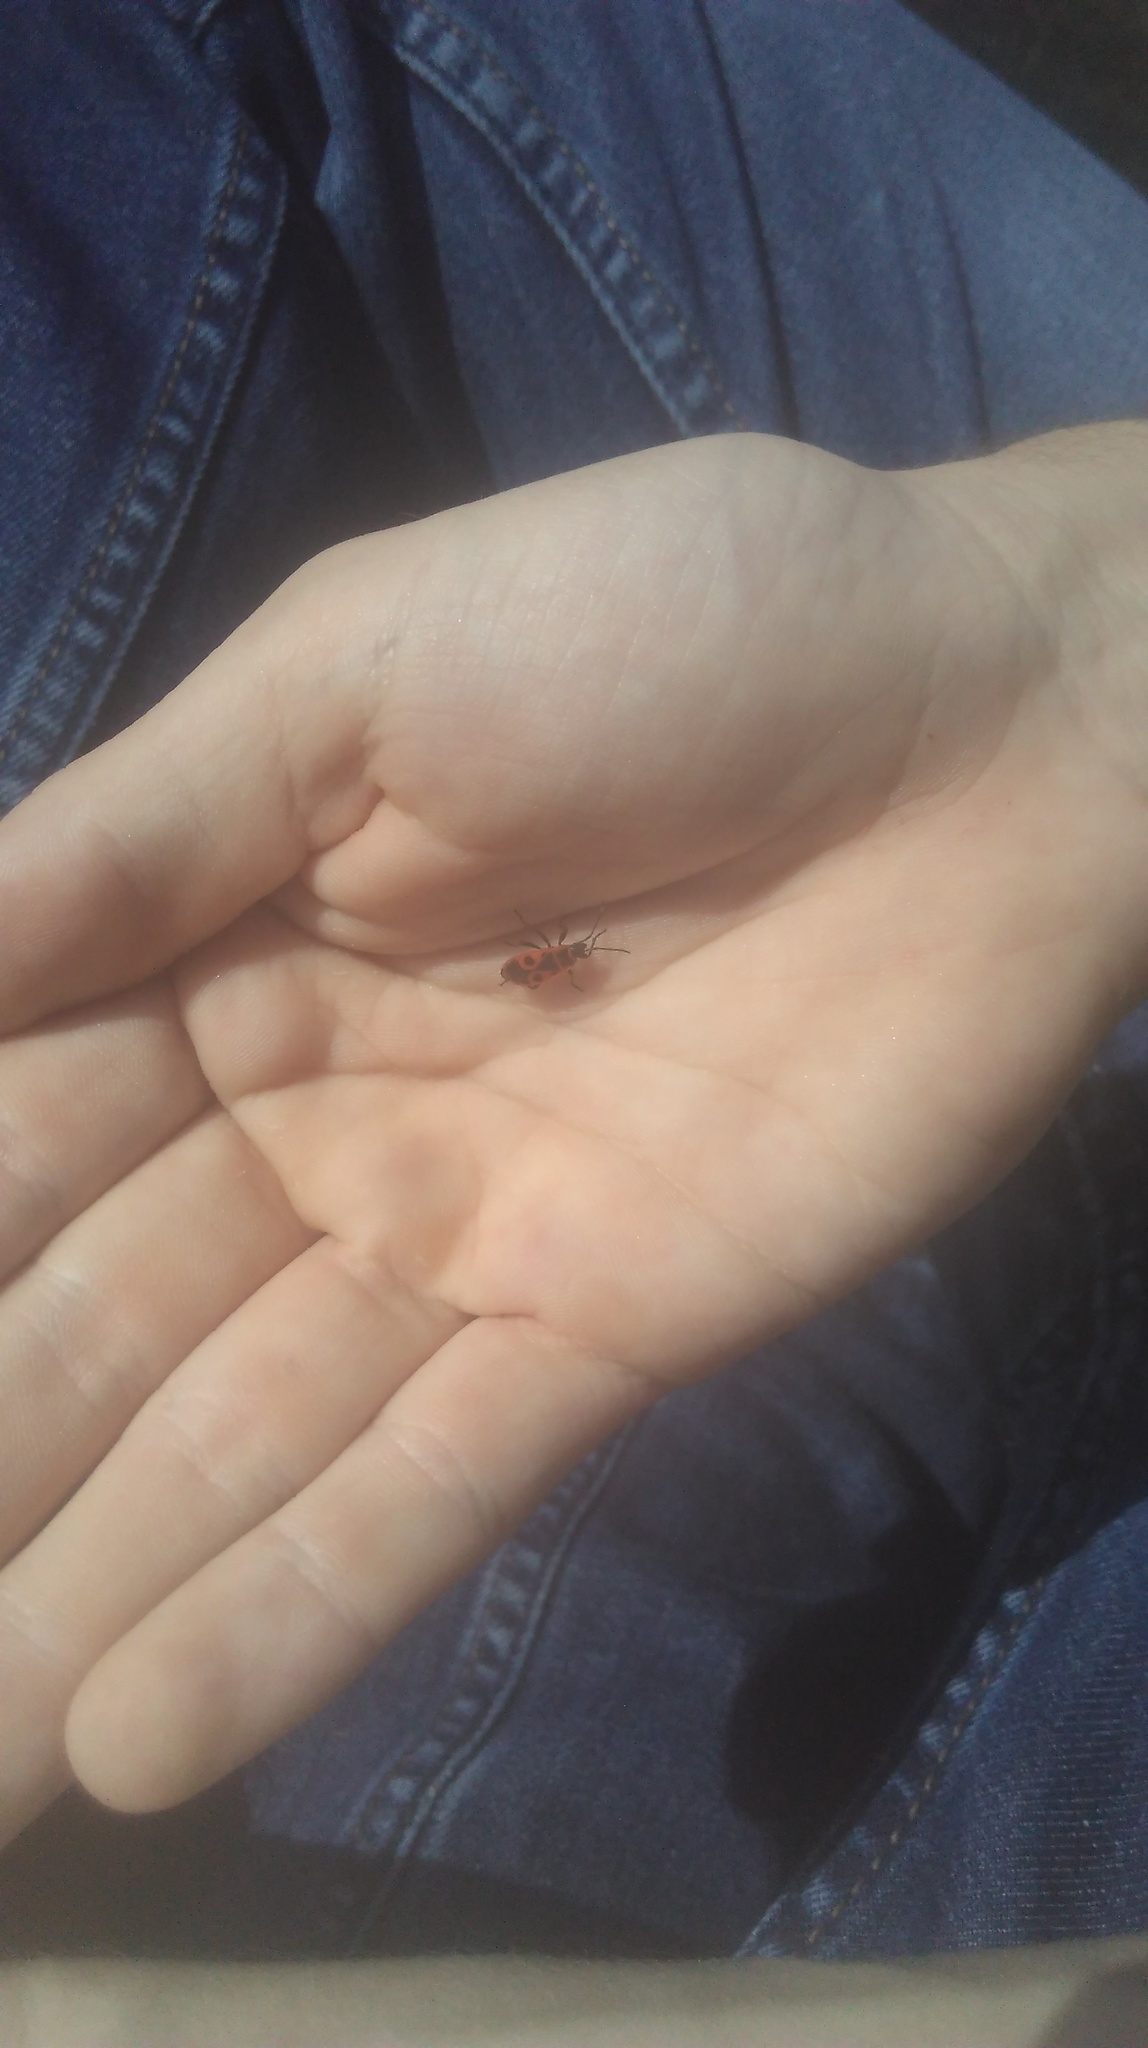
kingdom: Animalia
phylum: Arthropoda
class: Insecta
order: Hemiptera
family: Pyrrhocoridae
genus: Pyrrhocoris
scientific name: Pyrrhocoris apterus
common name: Firebug
